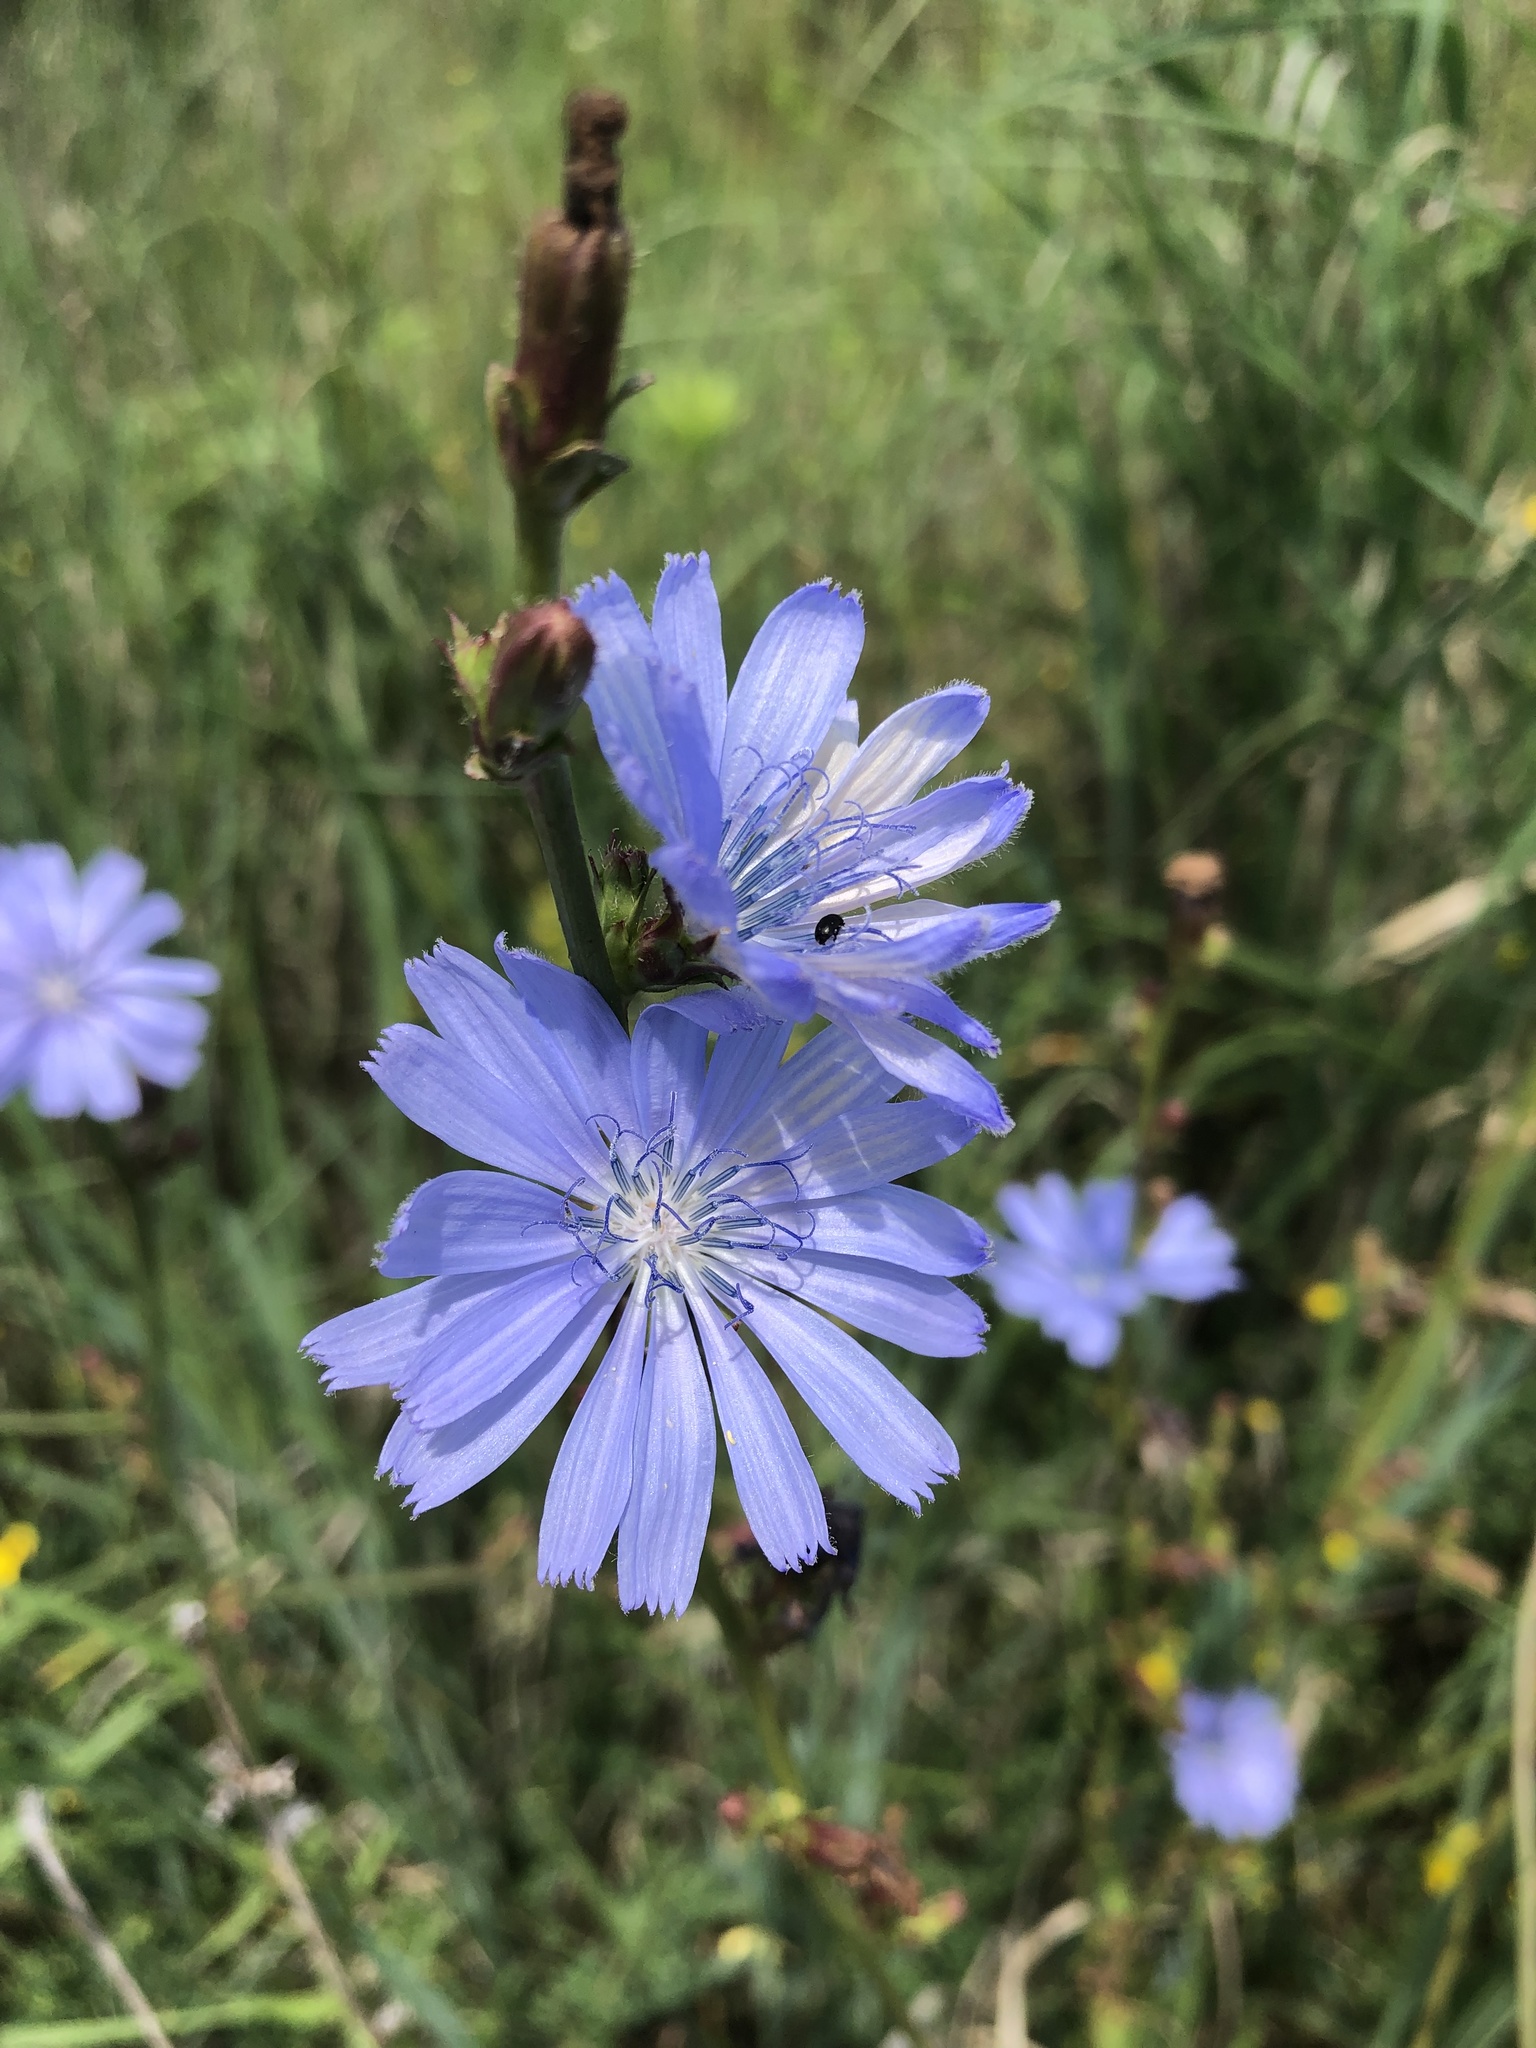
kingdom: Plantae
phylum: Tracheophyta
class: Magnoliopsida
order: Asterales
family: Asteraceae
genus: Cichorium
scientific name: Cichorium intybus
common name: Chicory
